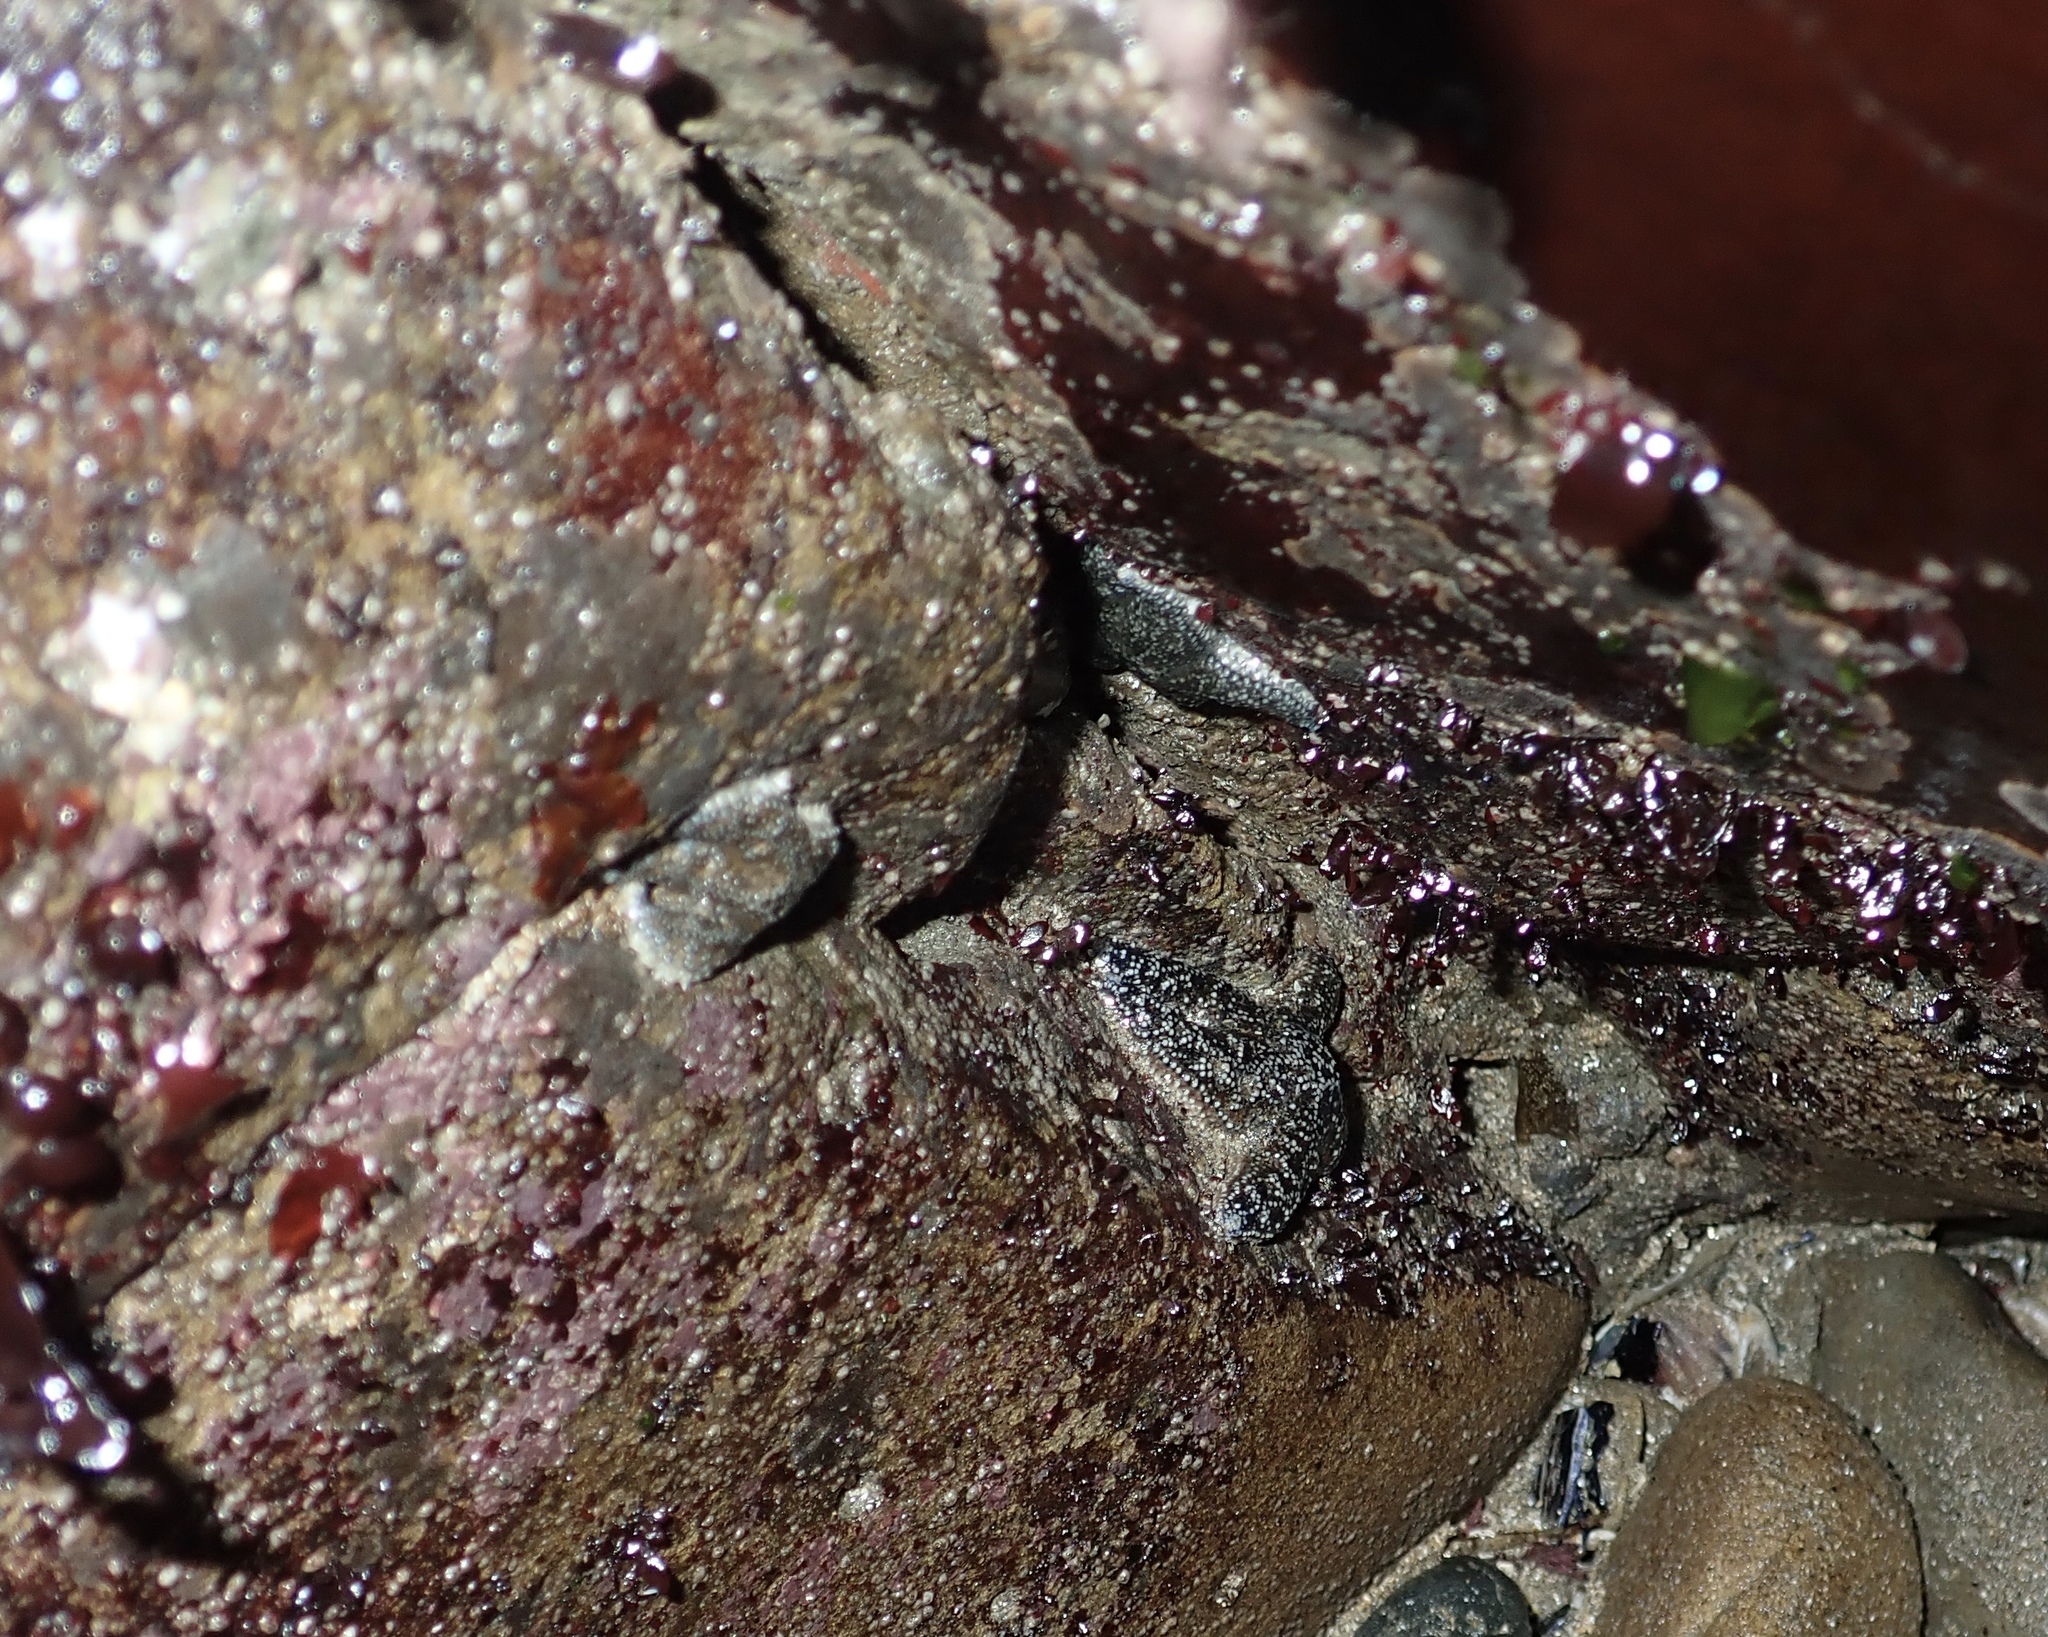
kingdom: Animalia
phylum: Echinodermata
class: Asteroidea
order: Forcipulatida
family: Asteriidae
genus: Pisaster
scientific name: Pisaster ochraceus
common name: Ochre stars
